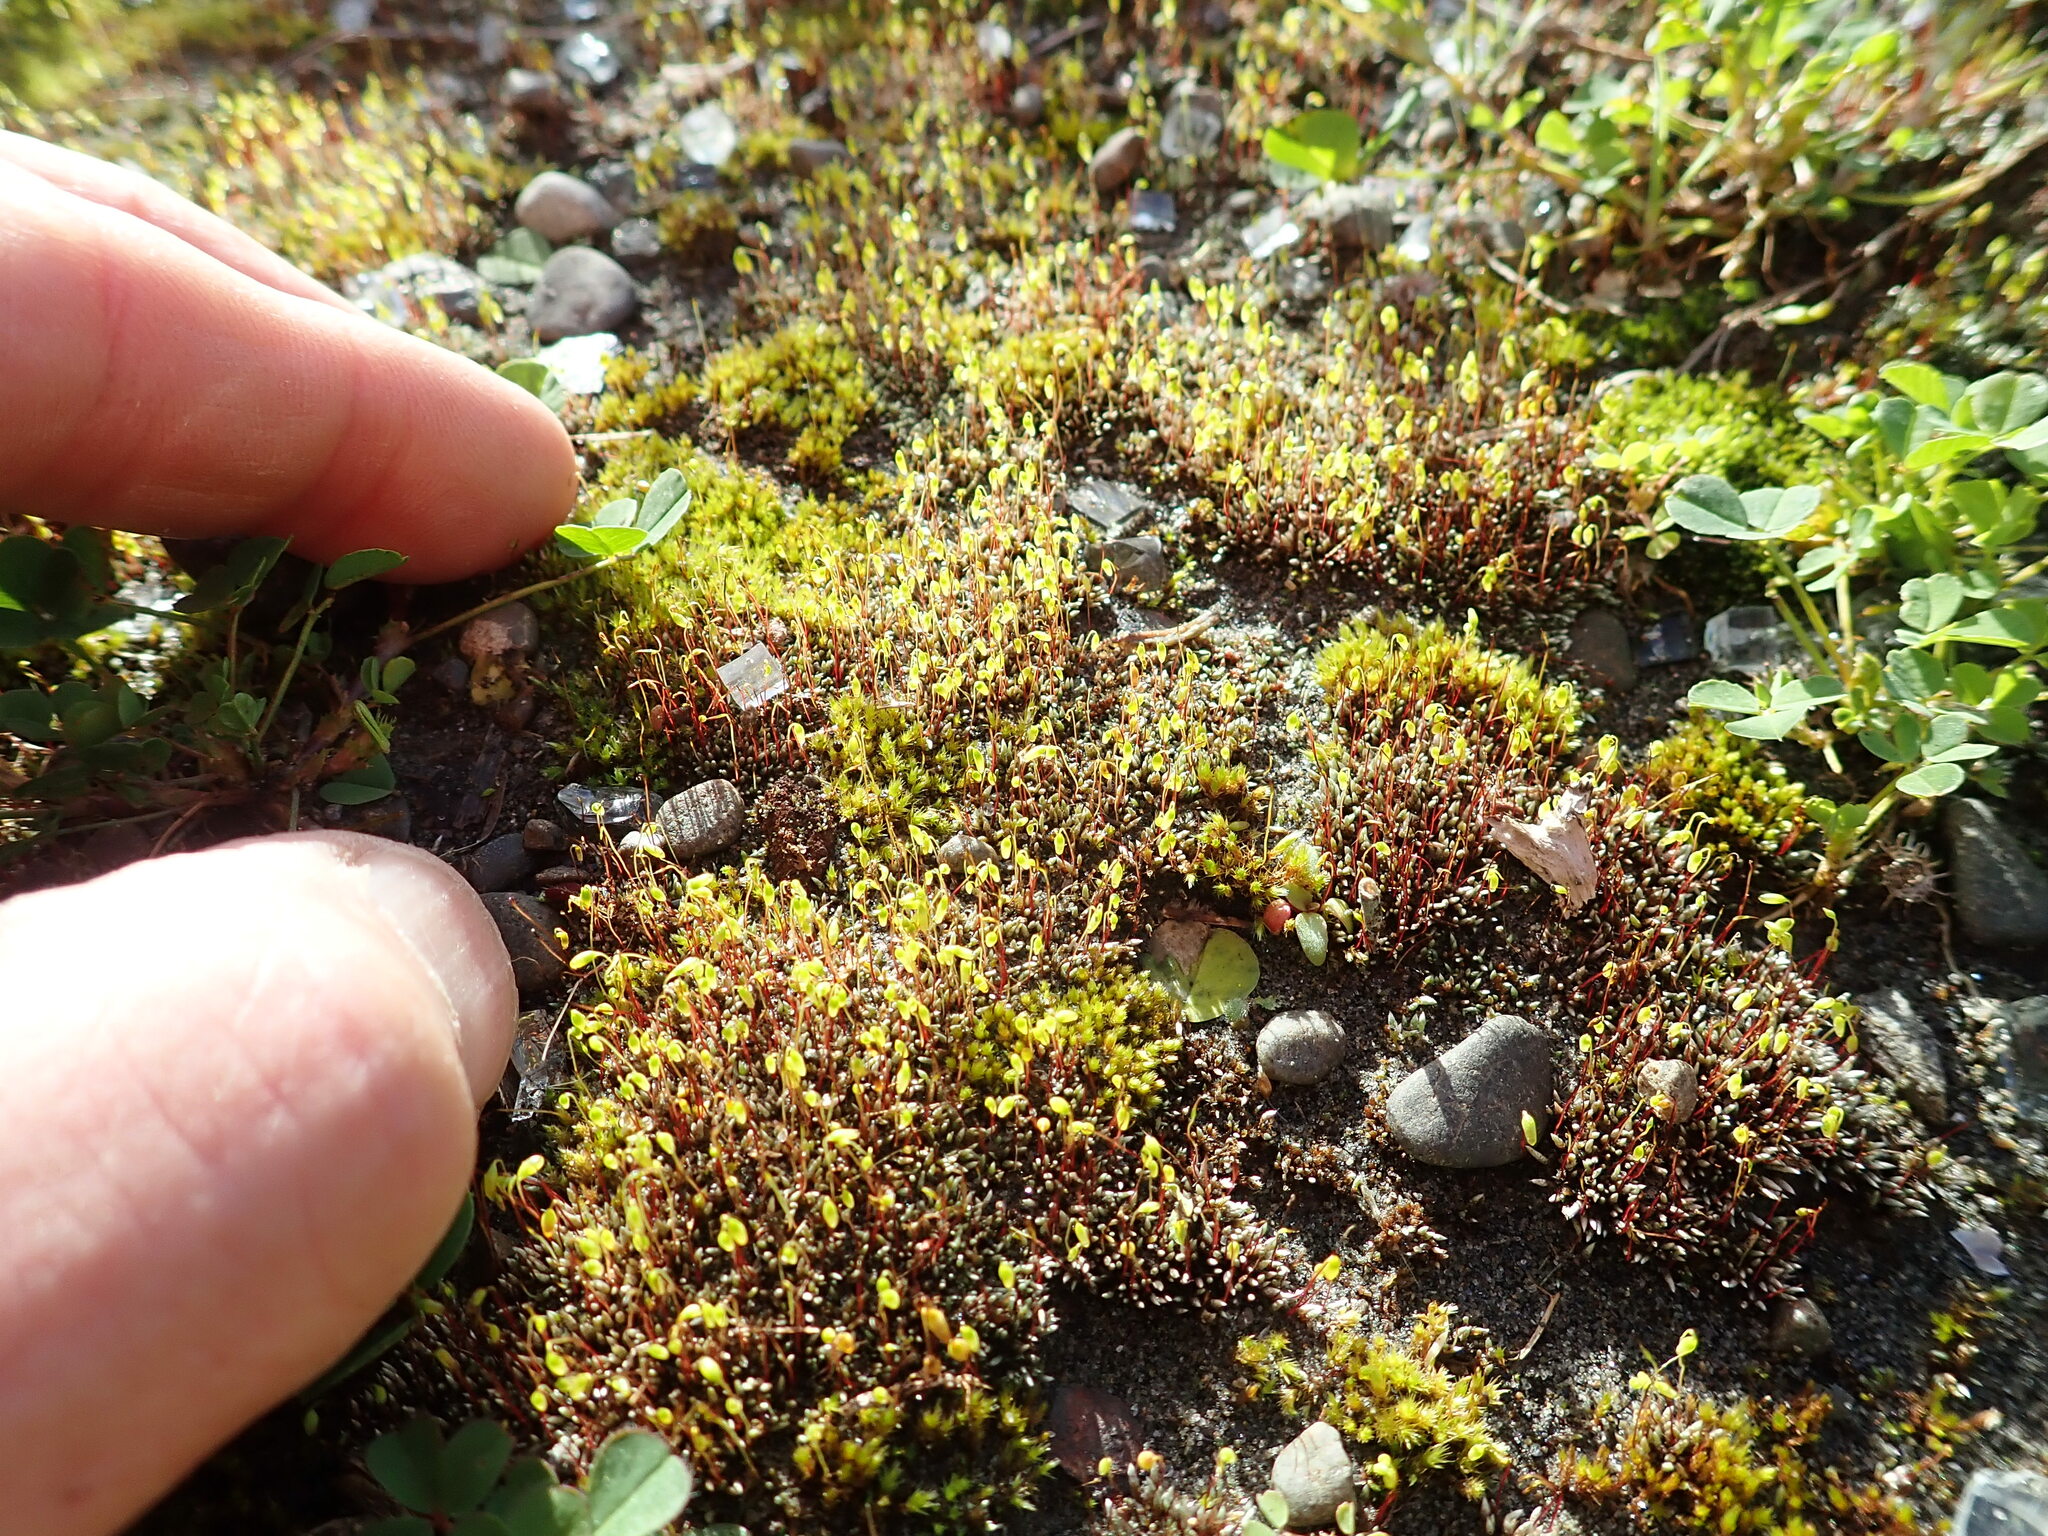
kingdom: Plantae
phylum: Bryophyta
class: Bryopsida
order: Bryales
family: Bryaceae
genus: Bryum
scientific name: Bryum argenteum
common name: Silver-moss
